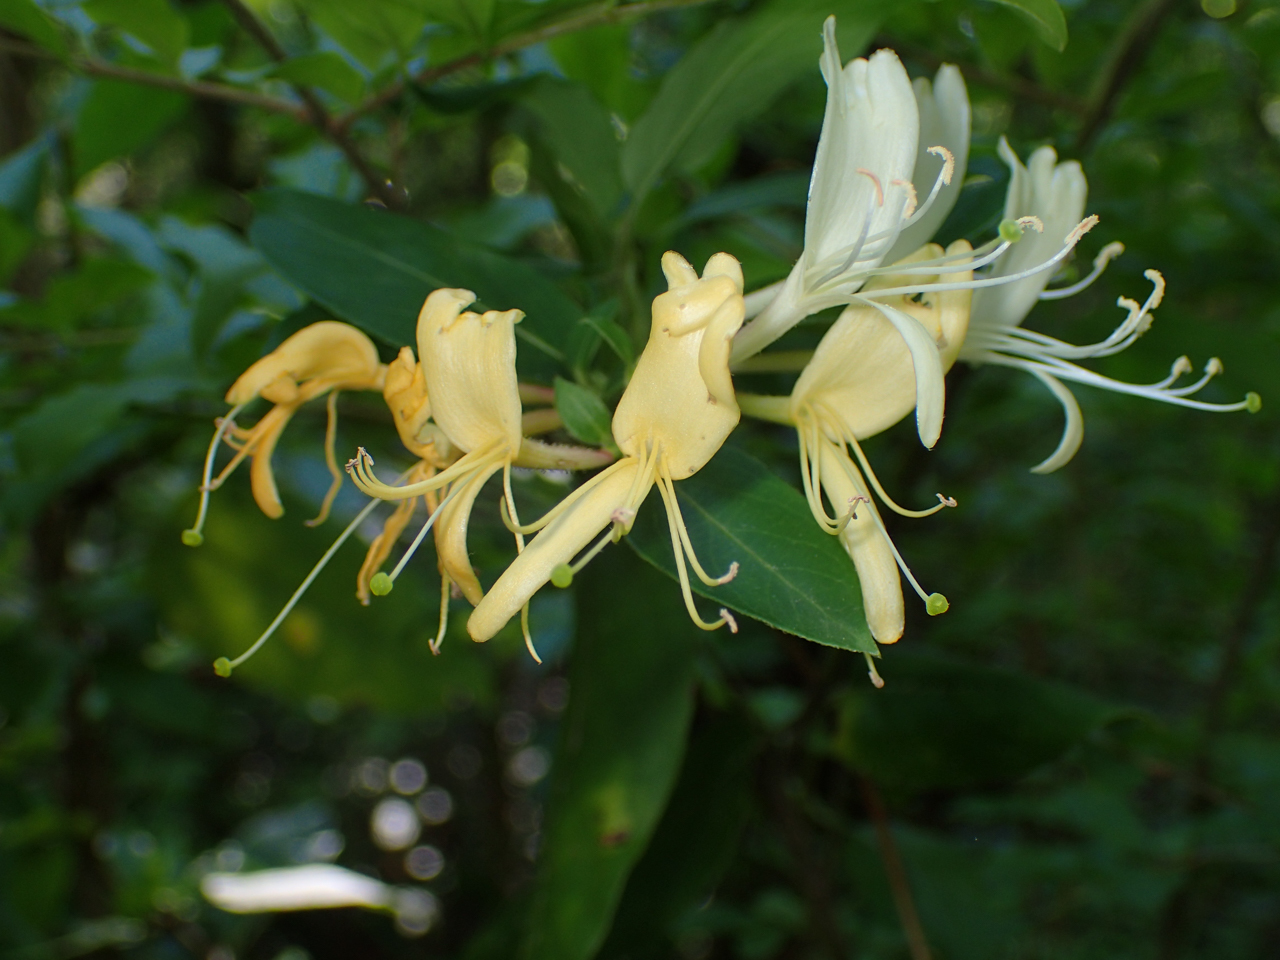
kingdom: Plantae
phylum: Tracheophyta
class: Magnoliopsida
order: Dipsacales
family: Caprifoliaceae
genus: Lonicera
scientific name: Lonicera japonica
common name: Japanese honeysuckle
